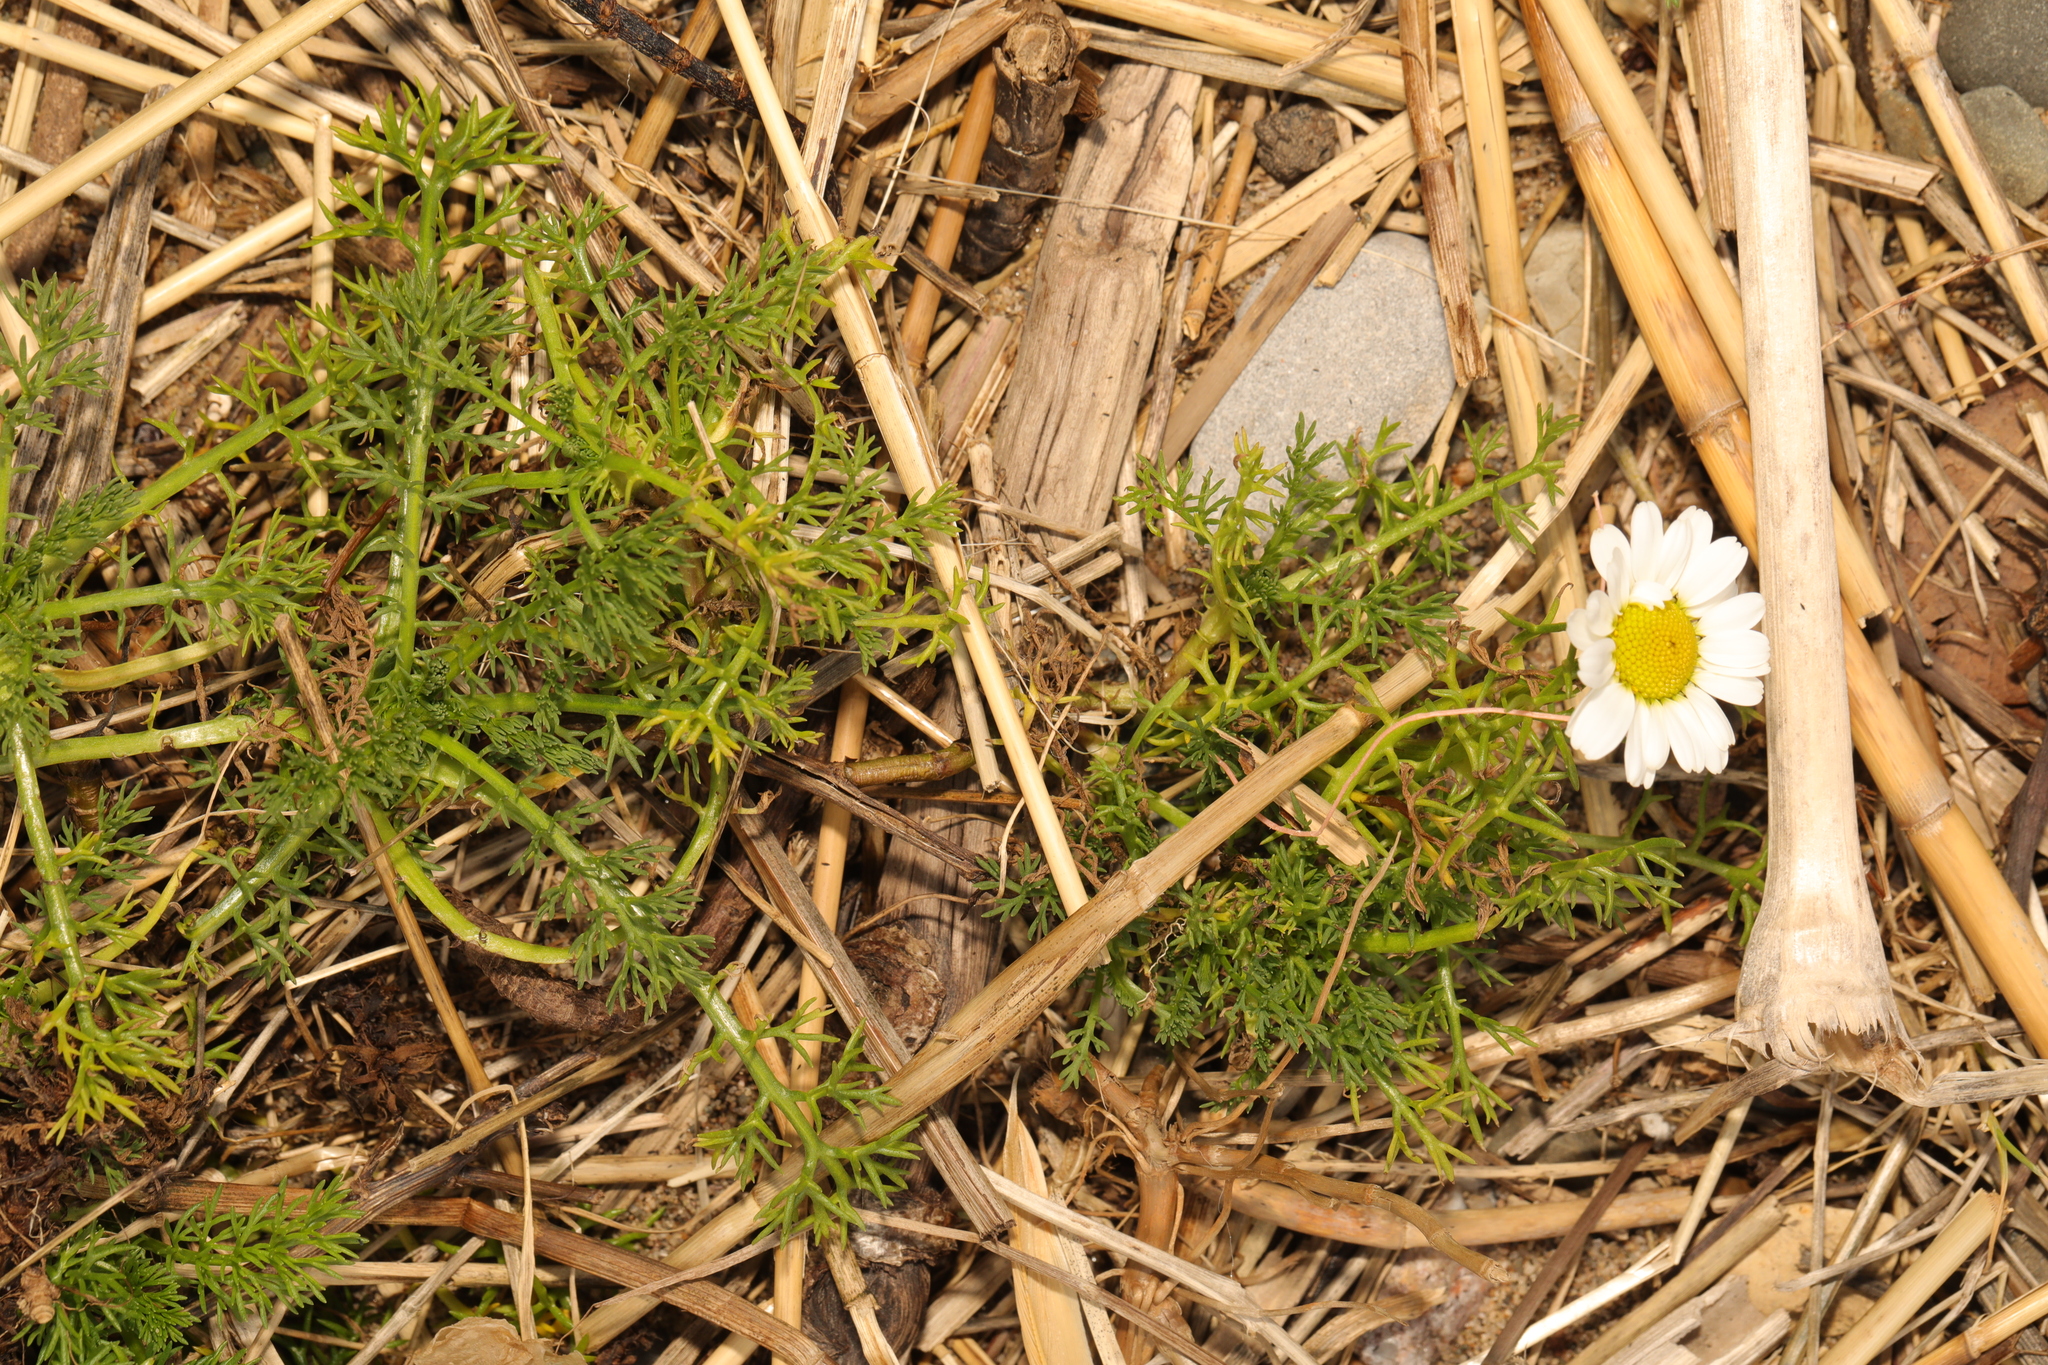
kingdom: Plantae
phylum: Tracheophyta
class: Magnoliopsida
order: Asterales
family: Asteraceae
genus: Tripleurospermum
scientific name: Tripleurospermum maritimum
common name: Sea mayweed
